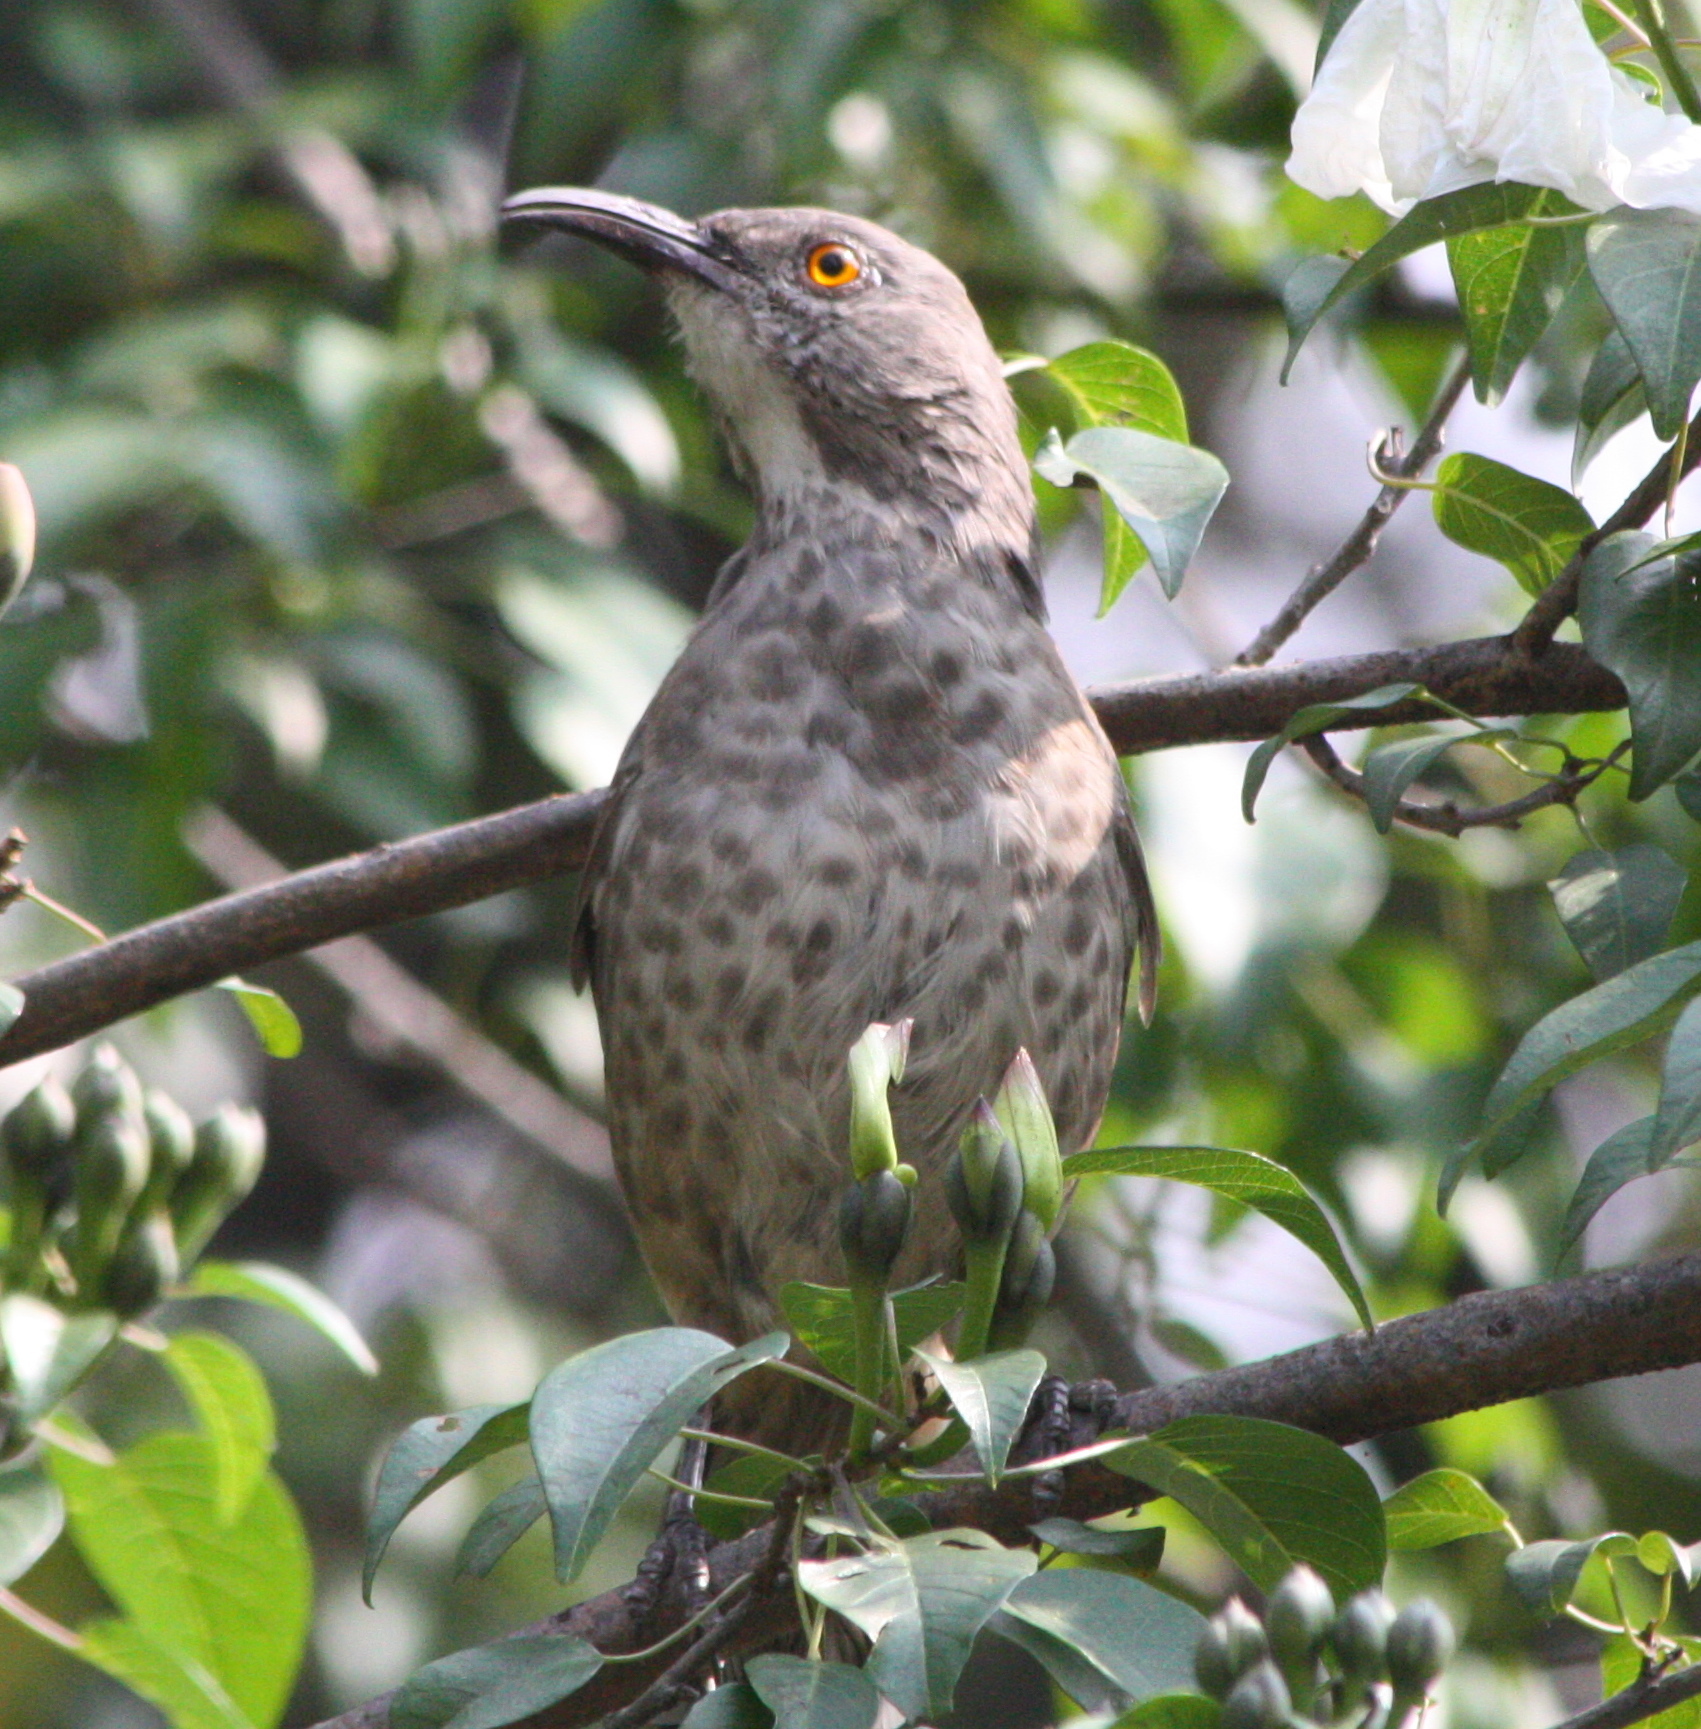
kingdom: Animalia
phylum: Chordata
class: Aves
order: Passeriformes
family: Mimidae
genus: Toxostoma
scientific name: Toxostoma curvirostre
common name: Curve-billed thrasher
